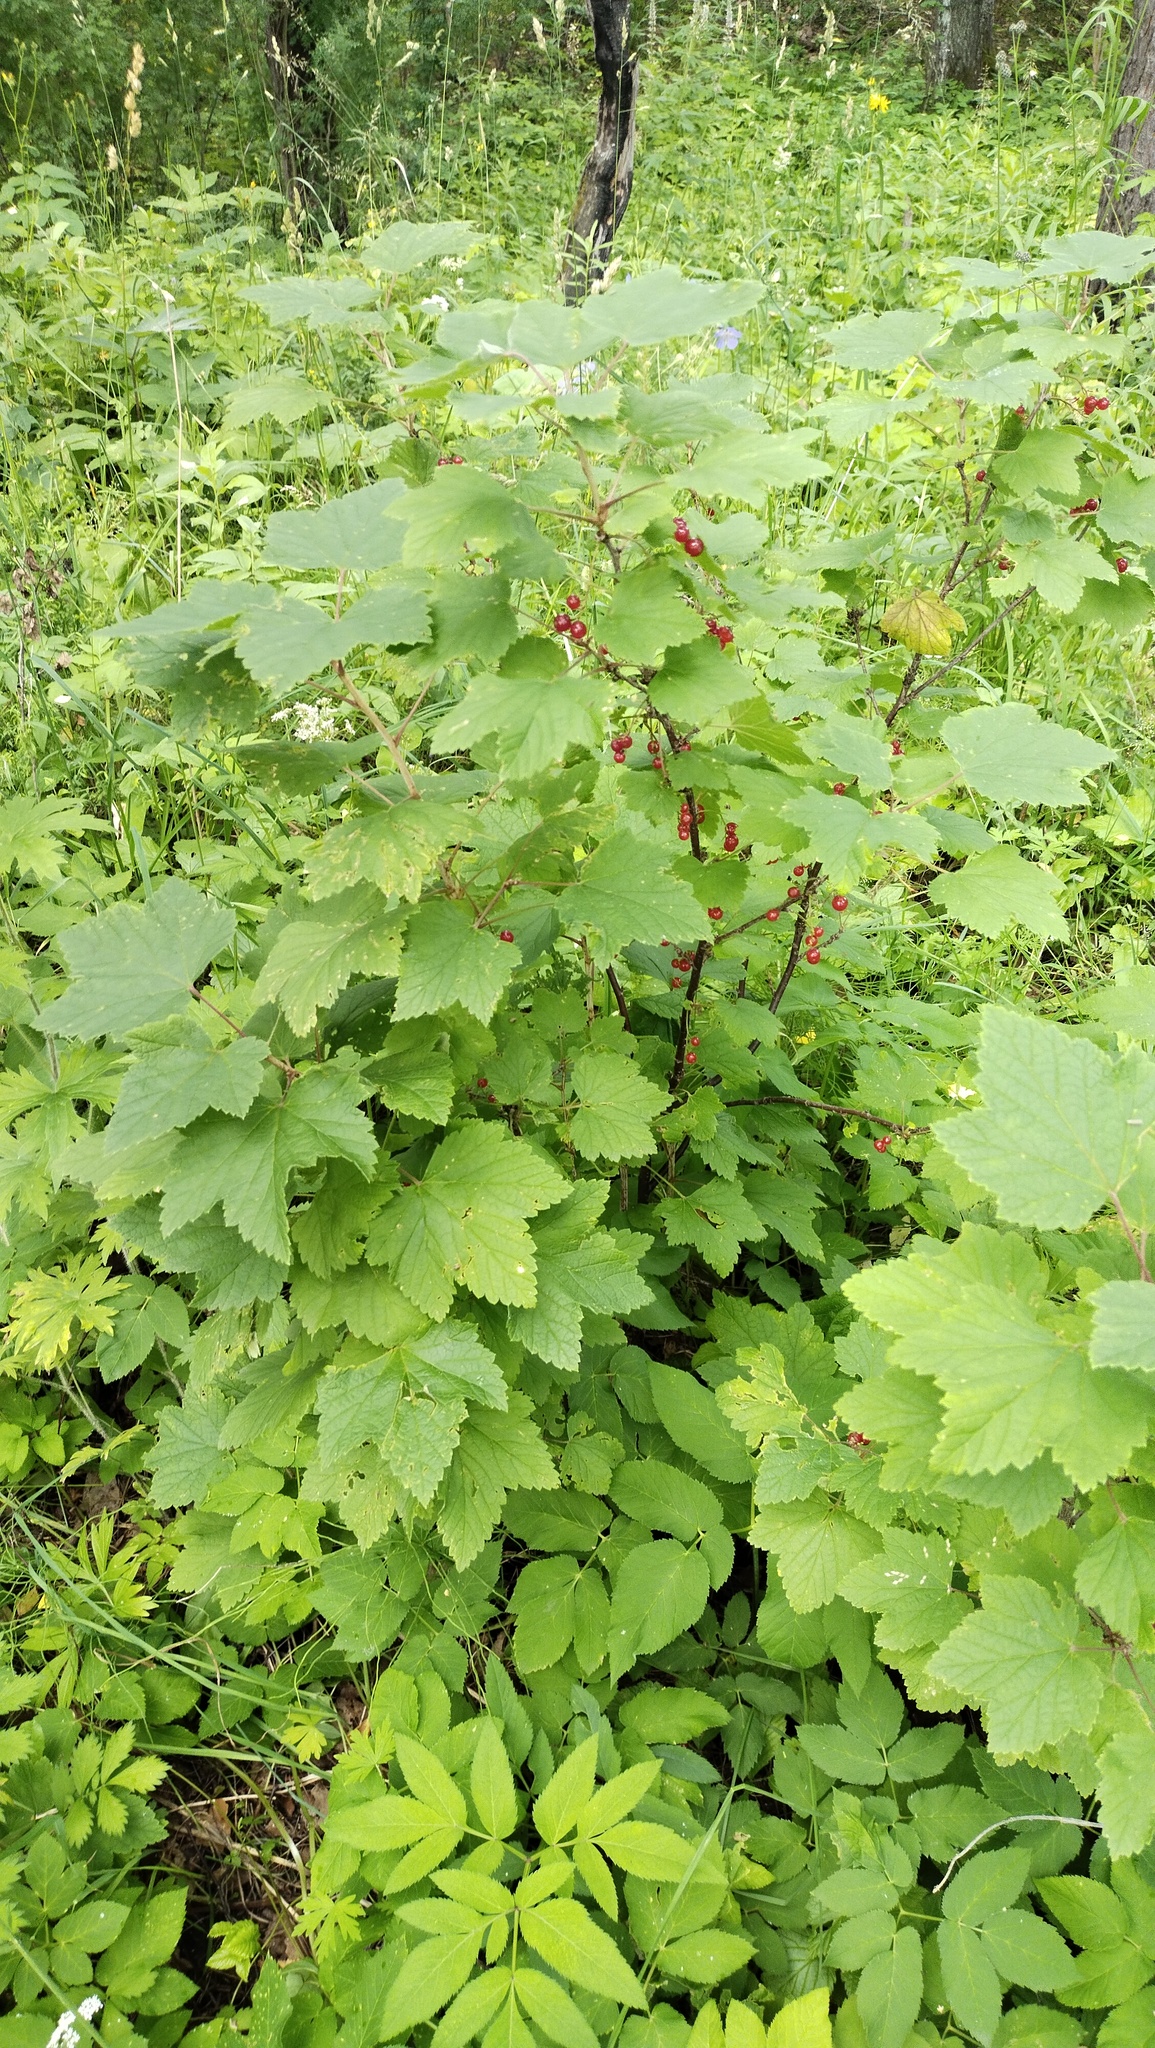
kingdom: Plantae
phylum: Tracheophyta
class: Magnoliopsida
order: Saxifragales
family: Grossulariaceae
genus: Ribes
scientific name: Ribes spicatum
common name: Downy currant
